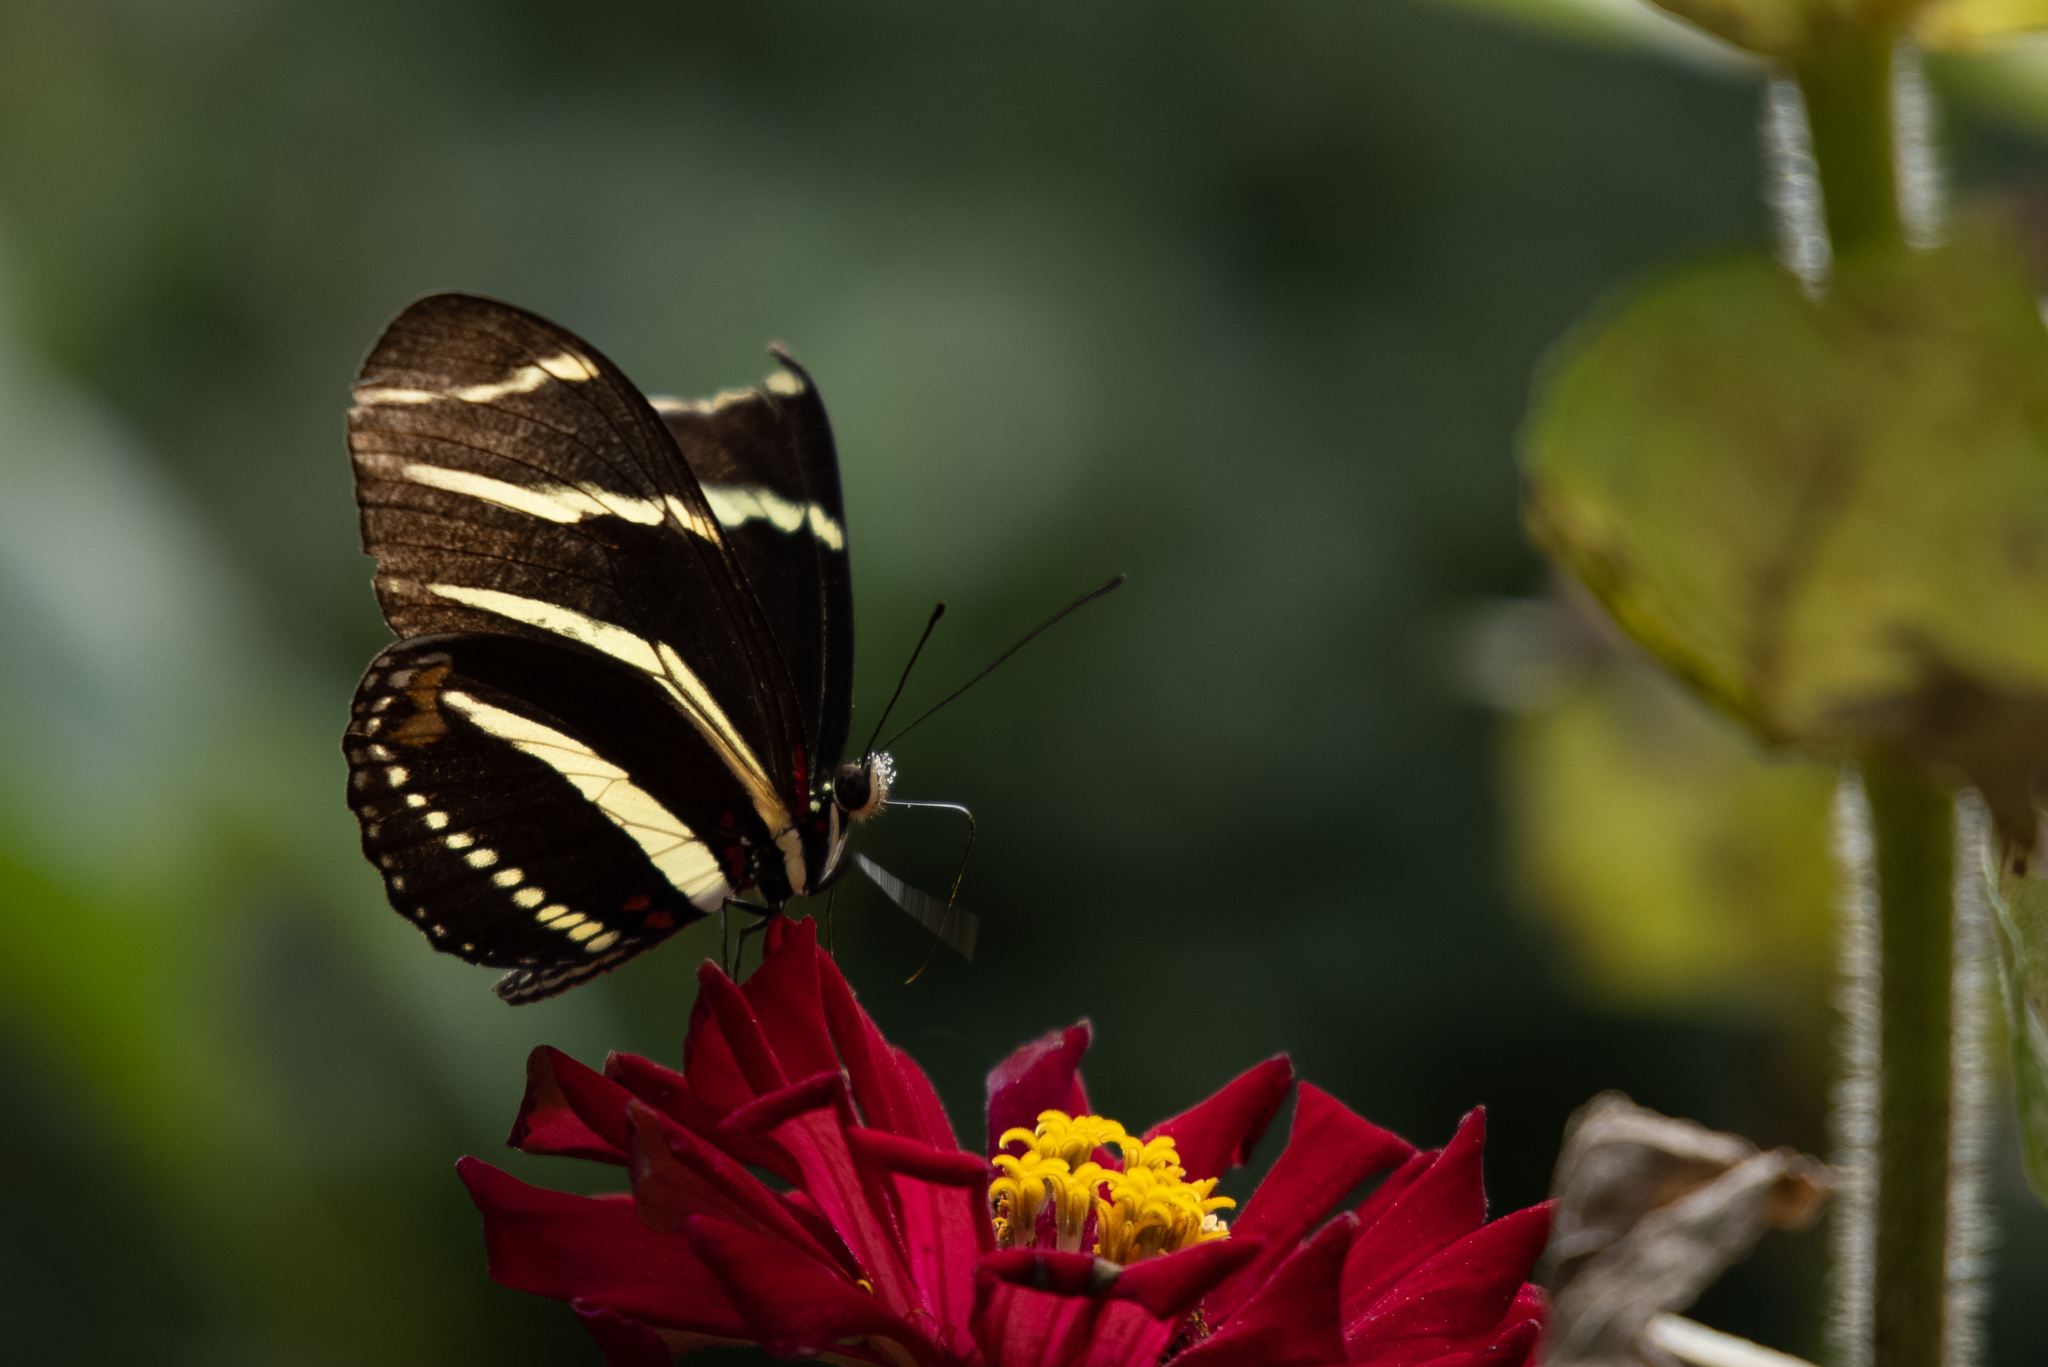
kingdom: Animalia
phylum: Arthropoda
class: Insecta
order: Lepidoptera
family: Nymphalidae
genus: Heliconius
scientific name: Heliconius charithonia
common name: Zebra long wing
